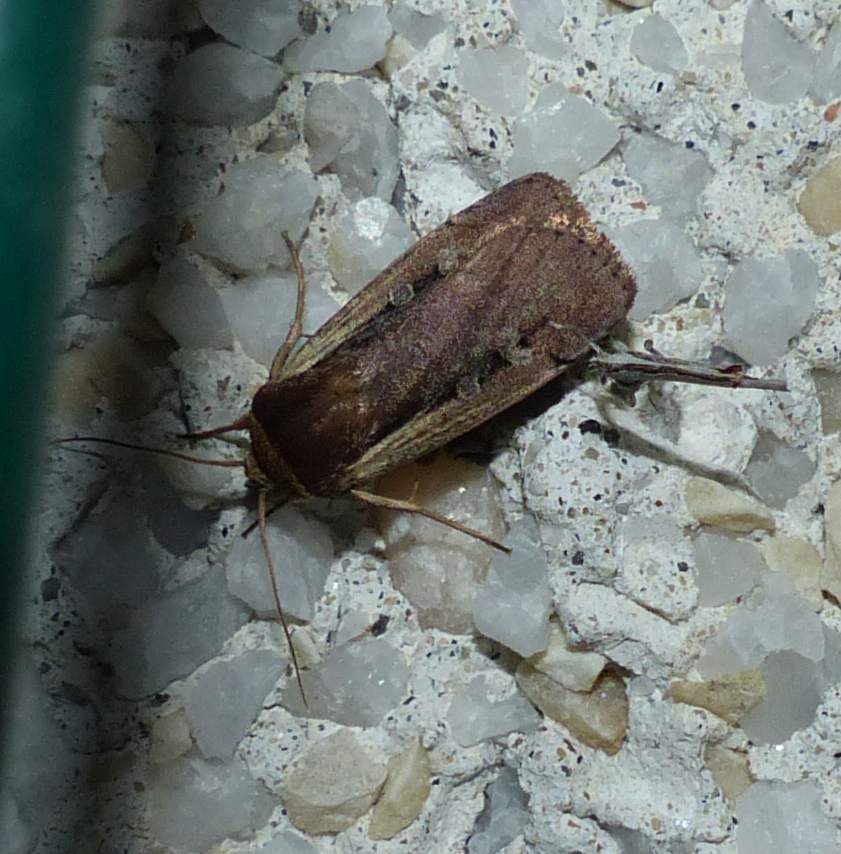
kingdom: Animalia
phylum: Arthropoda
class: Insecta
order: Lepidoptera
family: Noctuidae
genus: Ochropleura
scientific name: Ochropleura implecta
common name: Flame-shouldered dart
